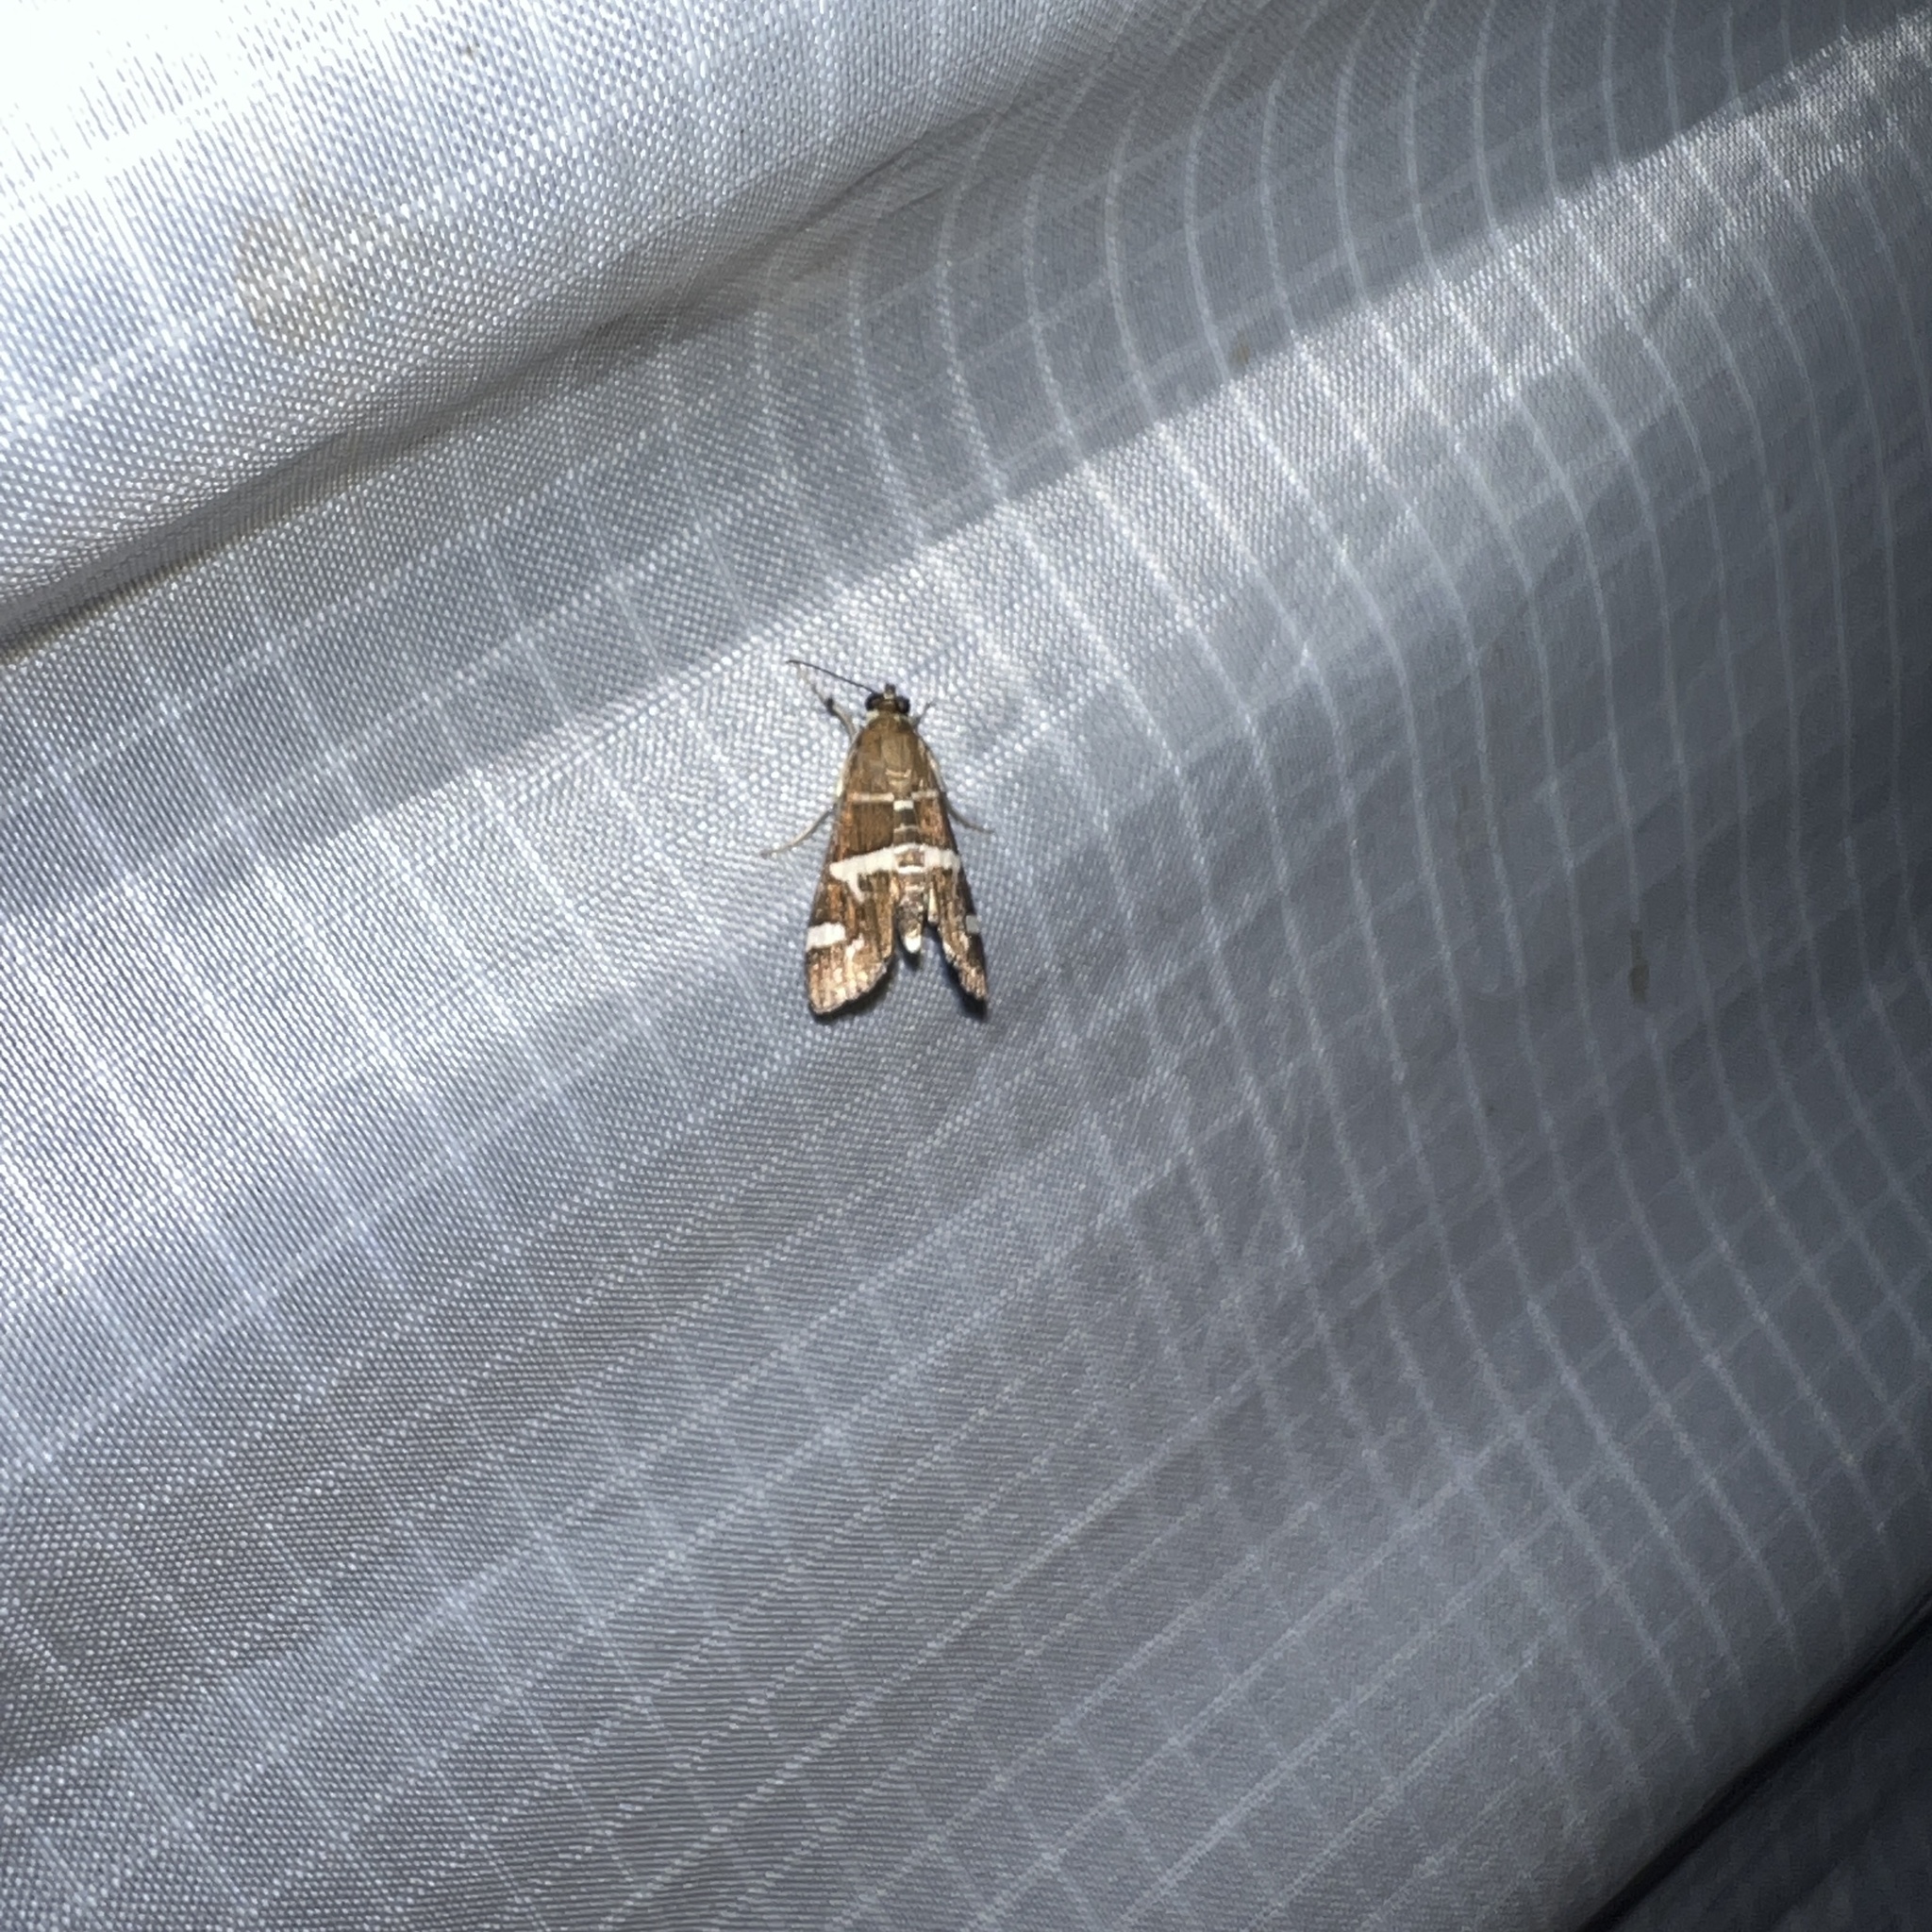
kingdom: Animalia
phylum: Arthropoda
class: Insecta
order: Lepidoptera
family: Crambidae
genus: Spoladea
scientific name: Spoladea recurvalis
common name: Beet webworm moth
